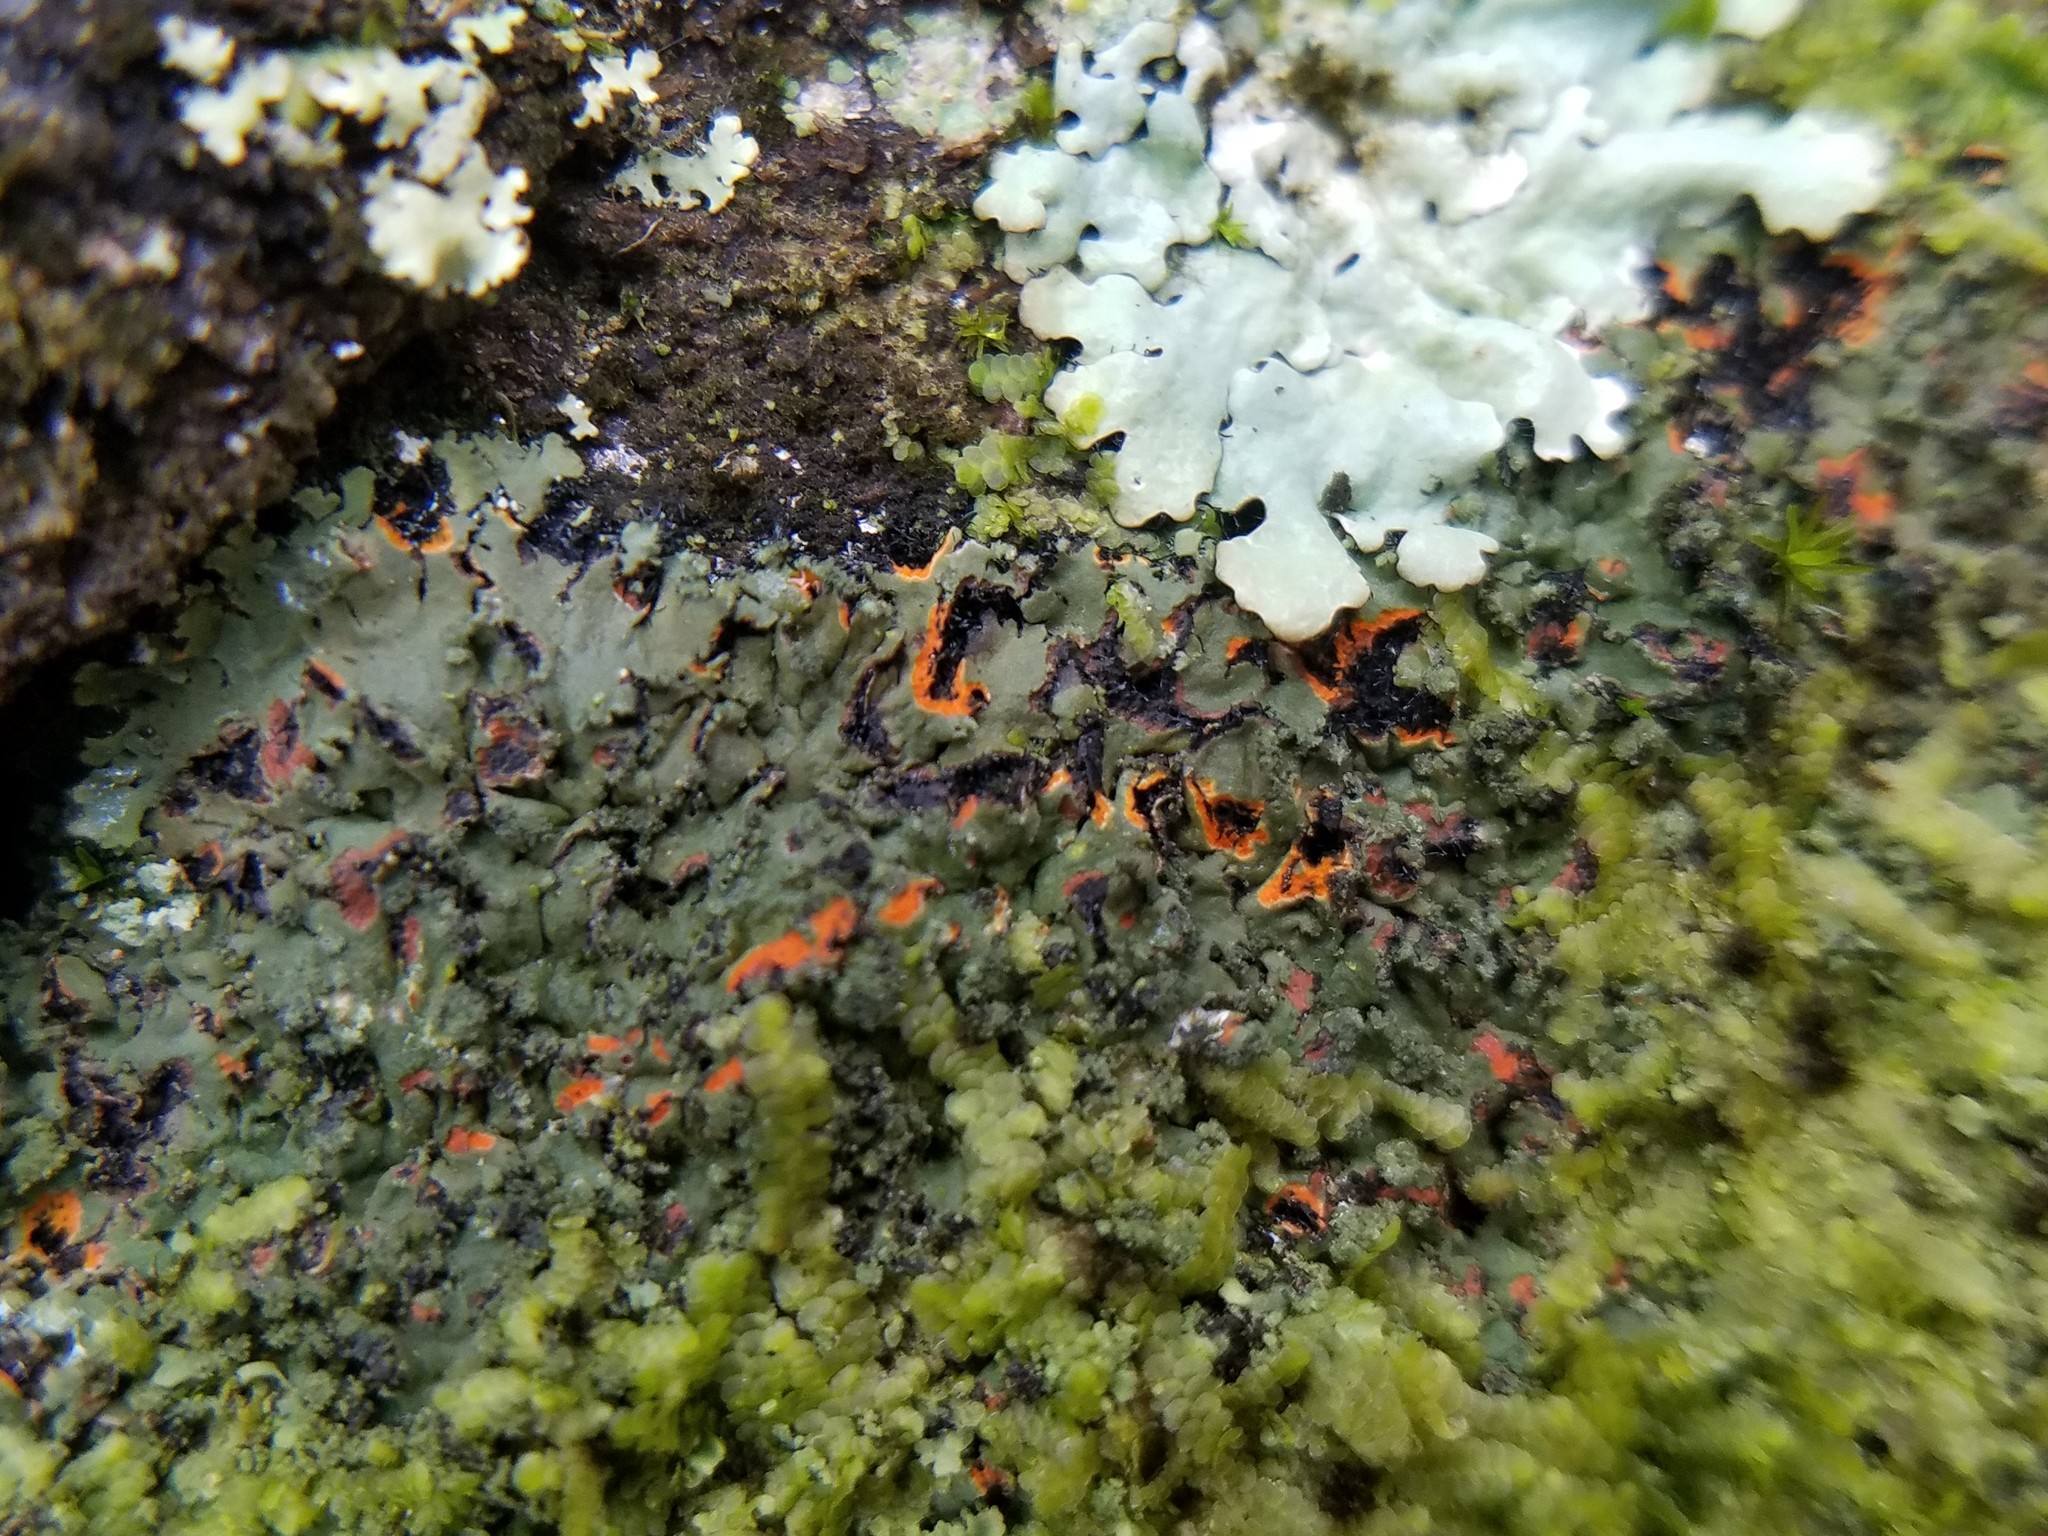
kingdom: Fungi
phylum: Ascomycota
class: Lecanoromycetes
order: Caliciales
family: Physciaceae
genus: Phaeophyscia
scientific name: Phaeophyscia rubropulchra
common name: Orange-cored shadow lichen
